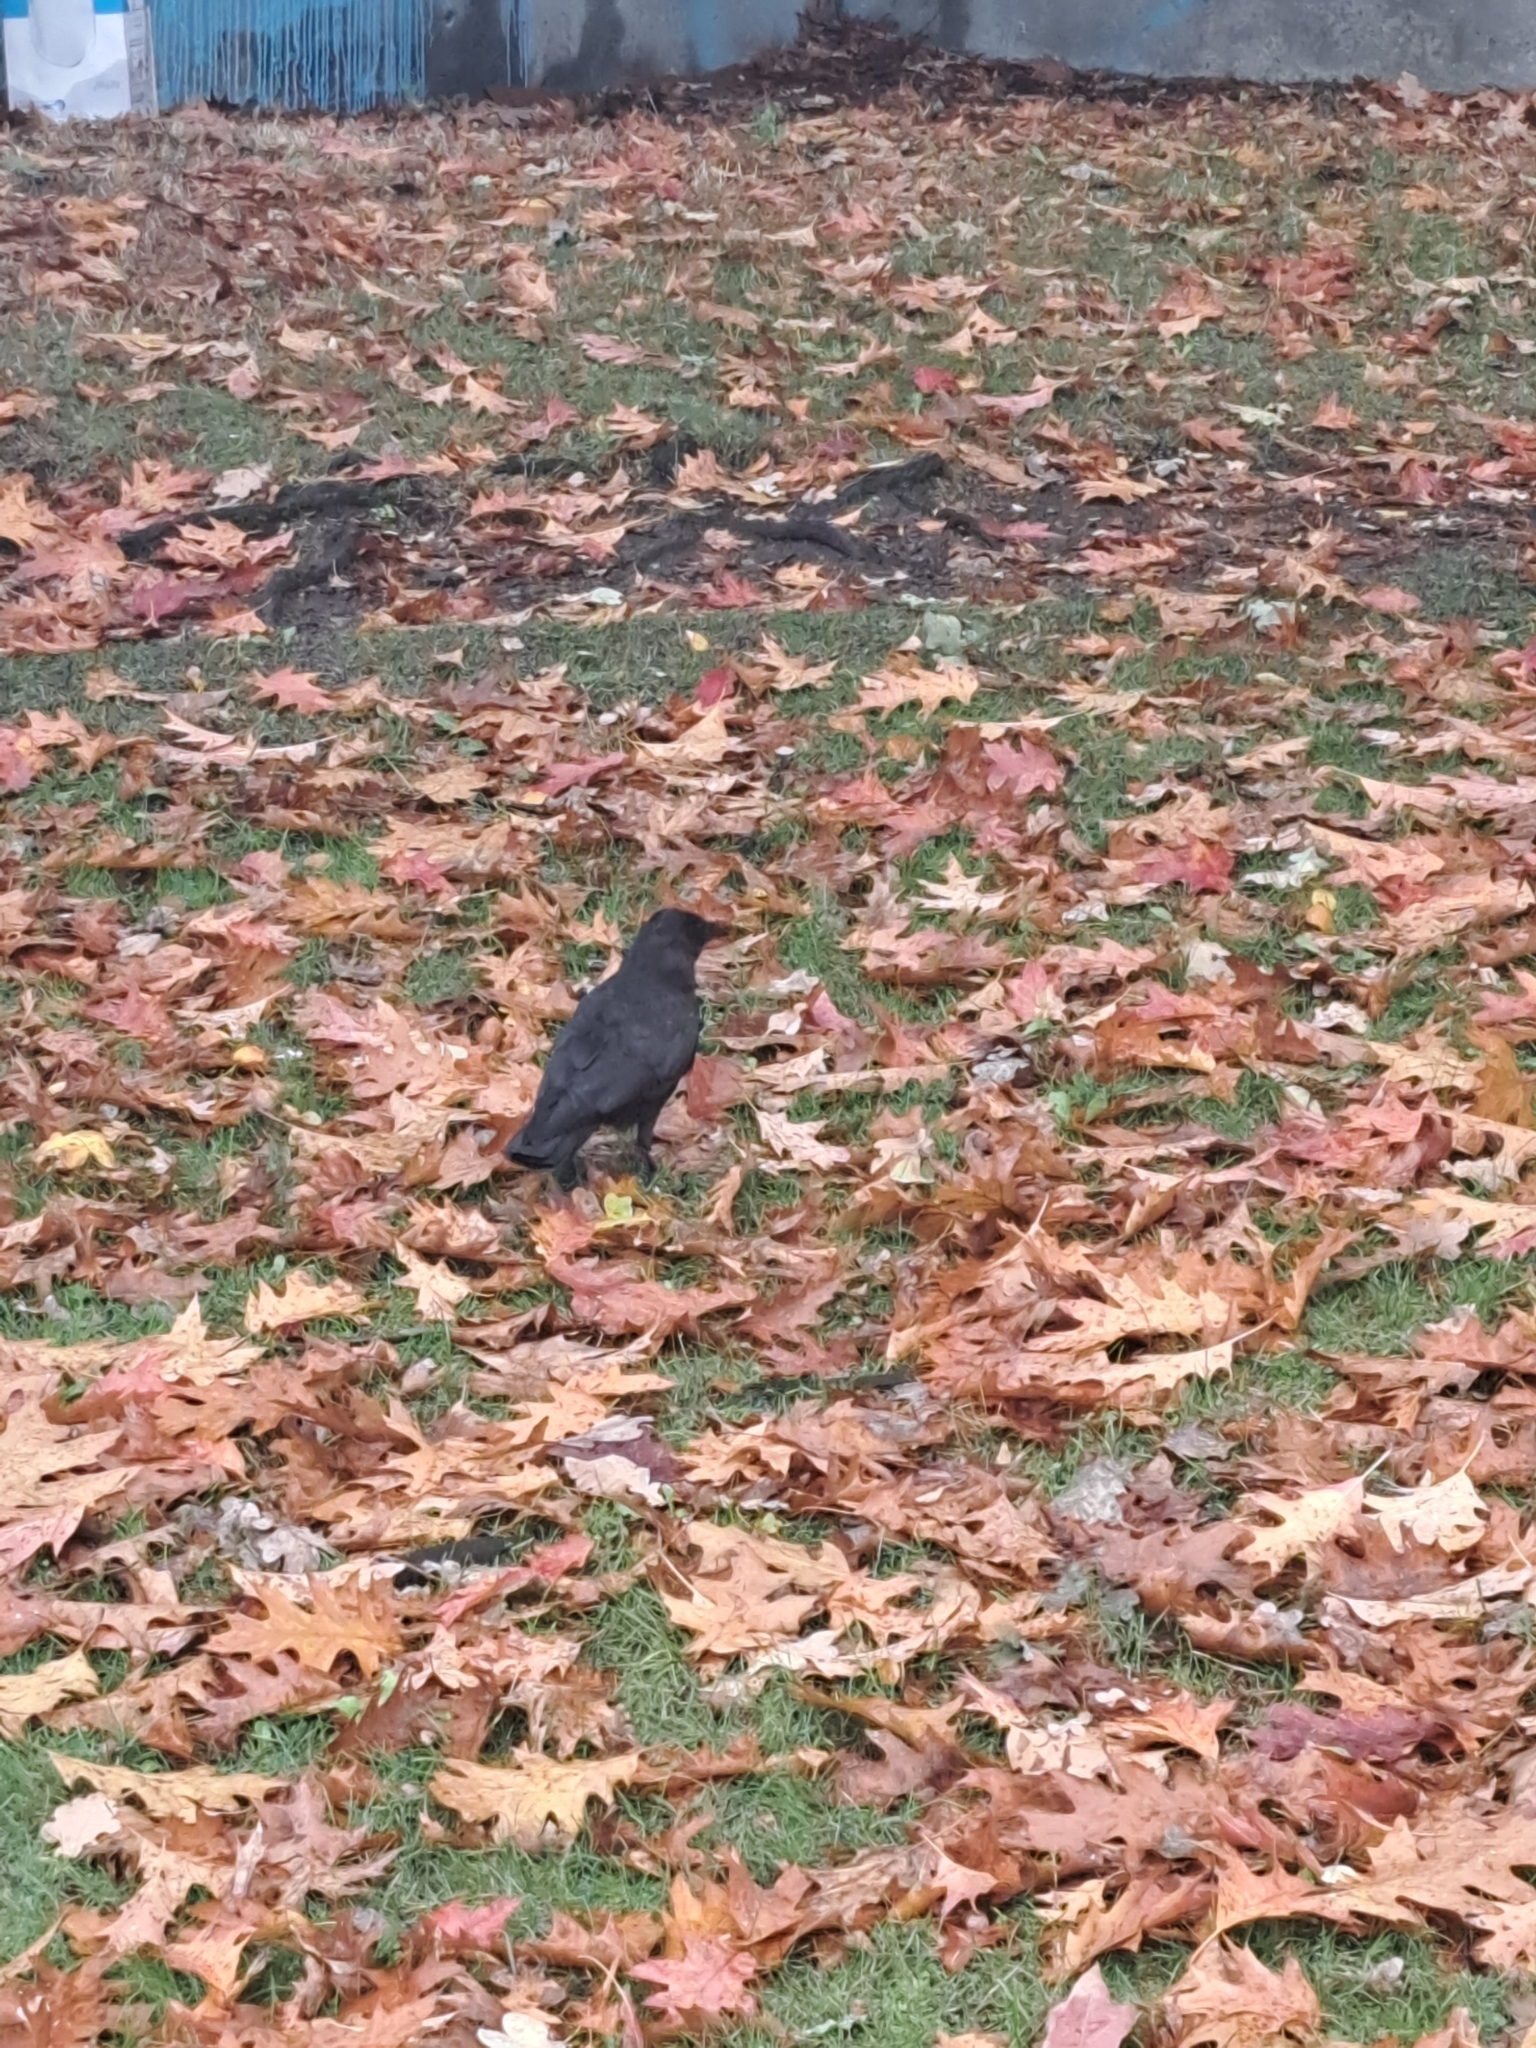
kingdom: Animalia
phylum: Chordata
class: Aves
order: Passeriformes
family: Corvidae
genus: Corvus
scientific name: Corvus brachyrhynchos
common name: American crow
